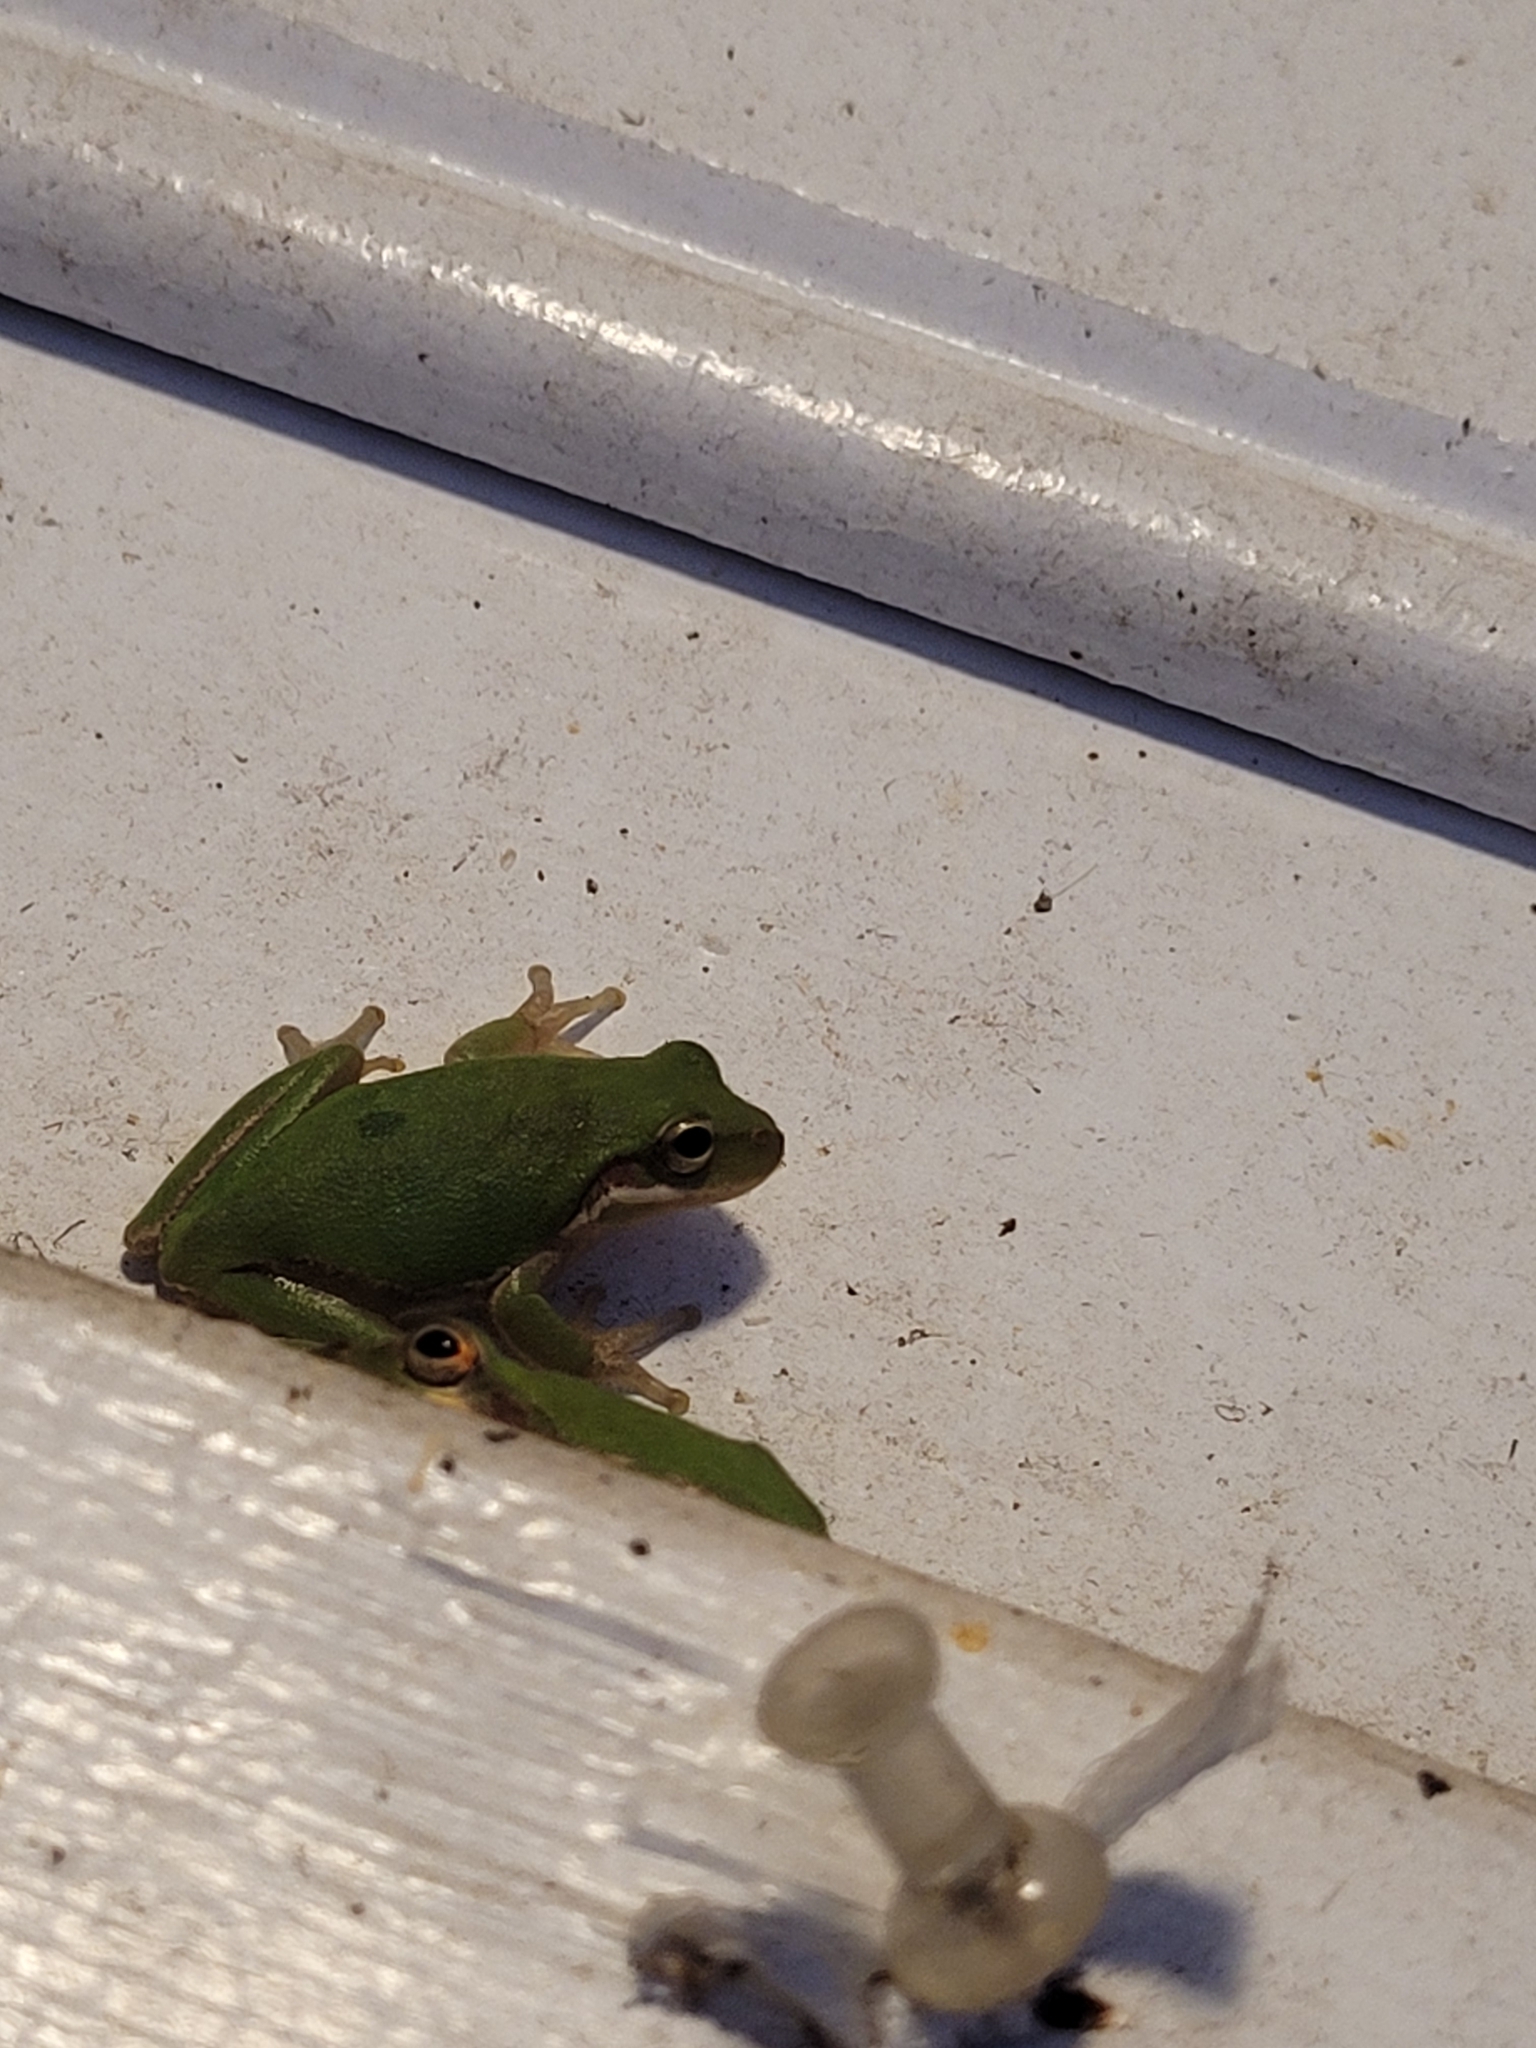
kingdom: Animalia
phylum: Chordata
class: Amphibia
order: Anura
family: Hylidae
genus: Dryophytes
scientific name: Dryophytes squirellus
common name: Squirrel treefrog
